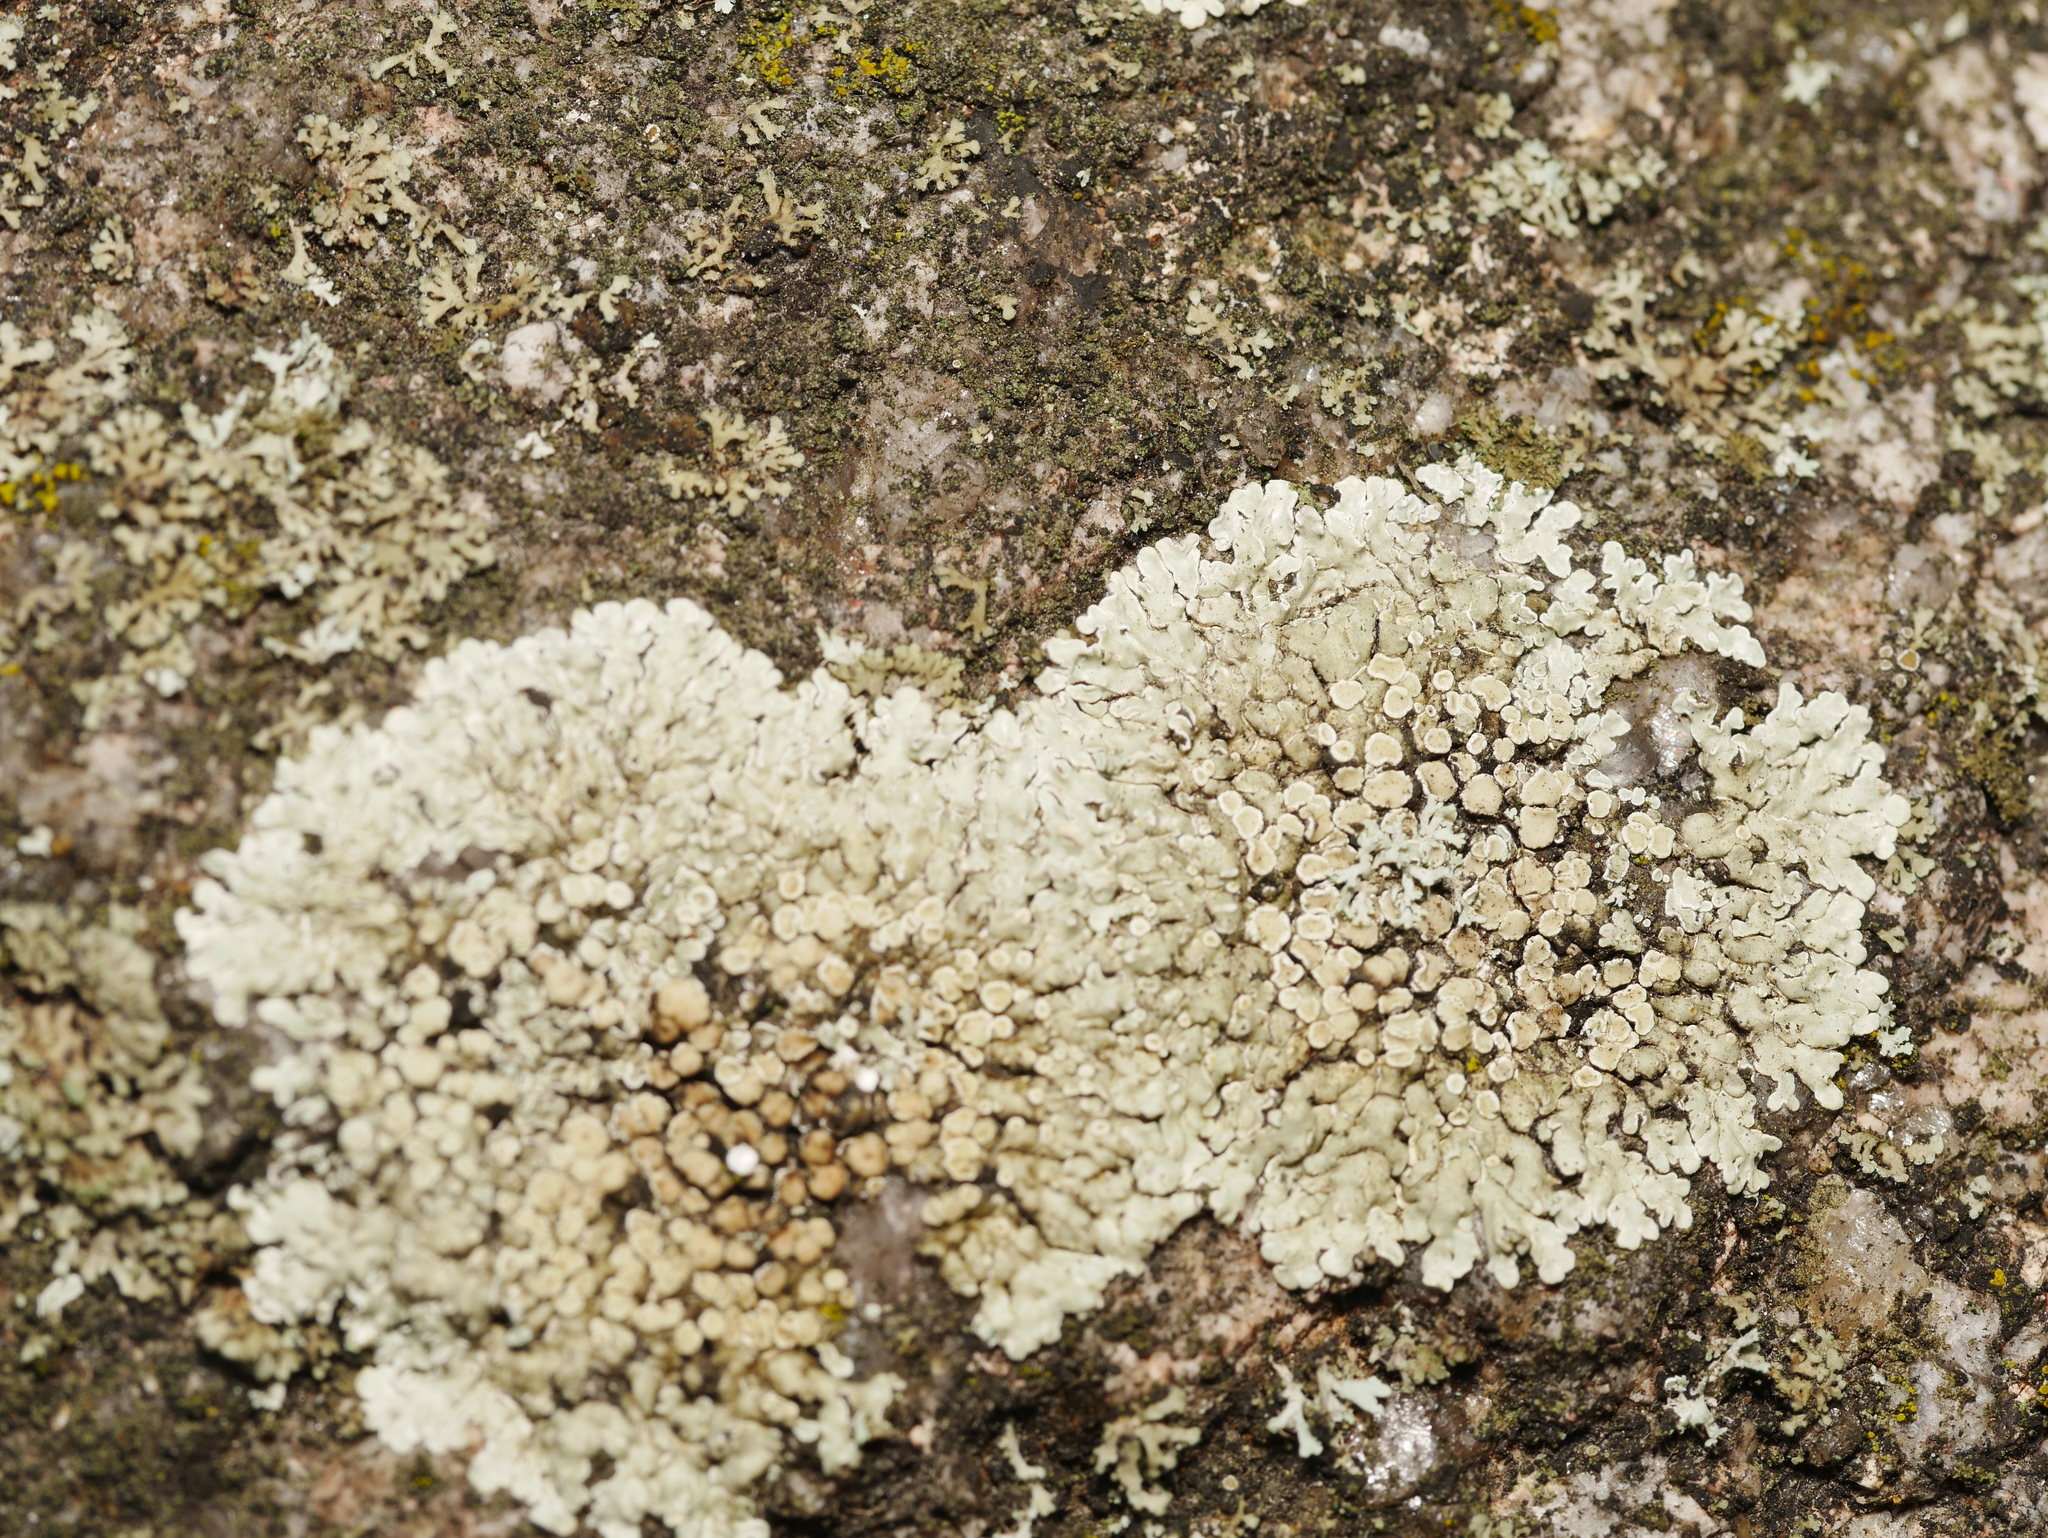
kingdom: Fungi
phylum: Ascomycota
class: Lecanoromycetes
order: Lecanorales
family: Lecanoraceae
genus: Protoparmeliopsis
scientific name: Protoparmeliopsis muralis
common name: Stonewall rim lichen
